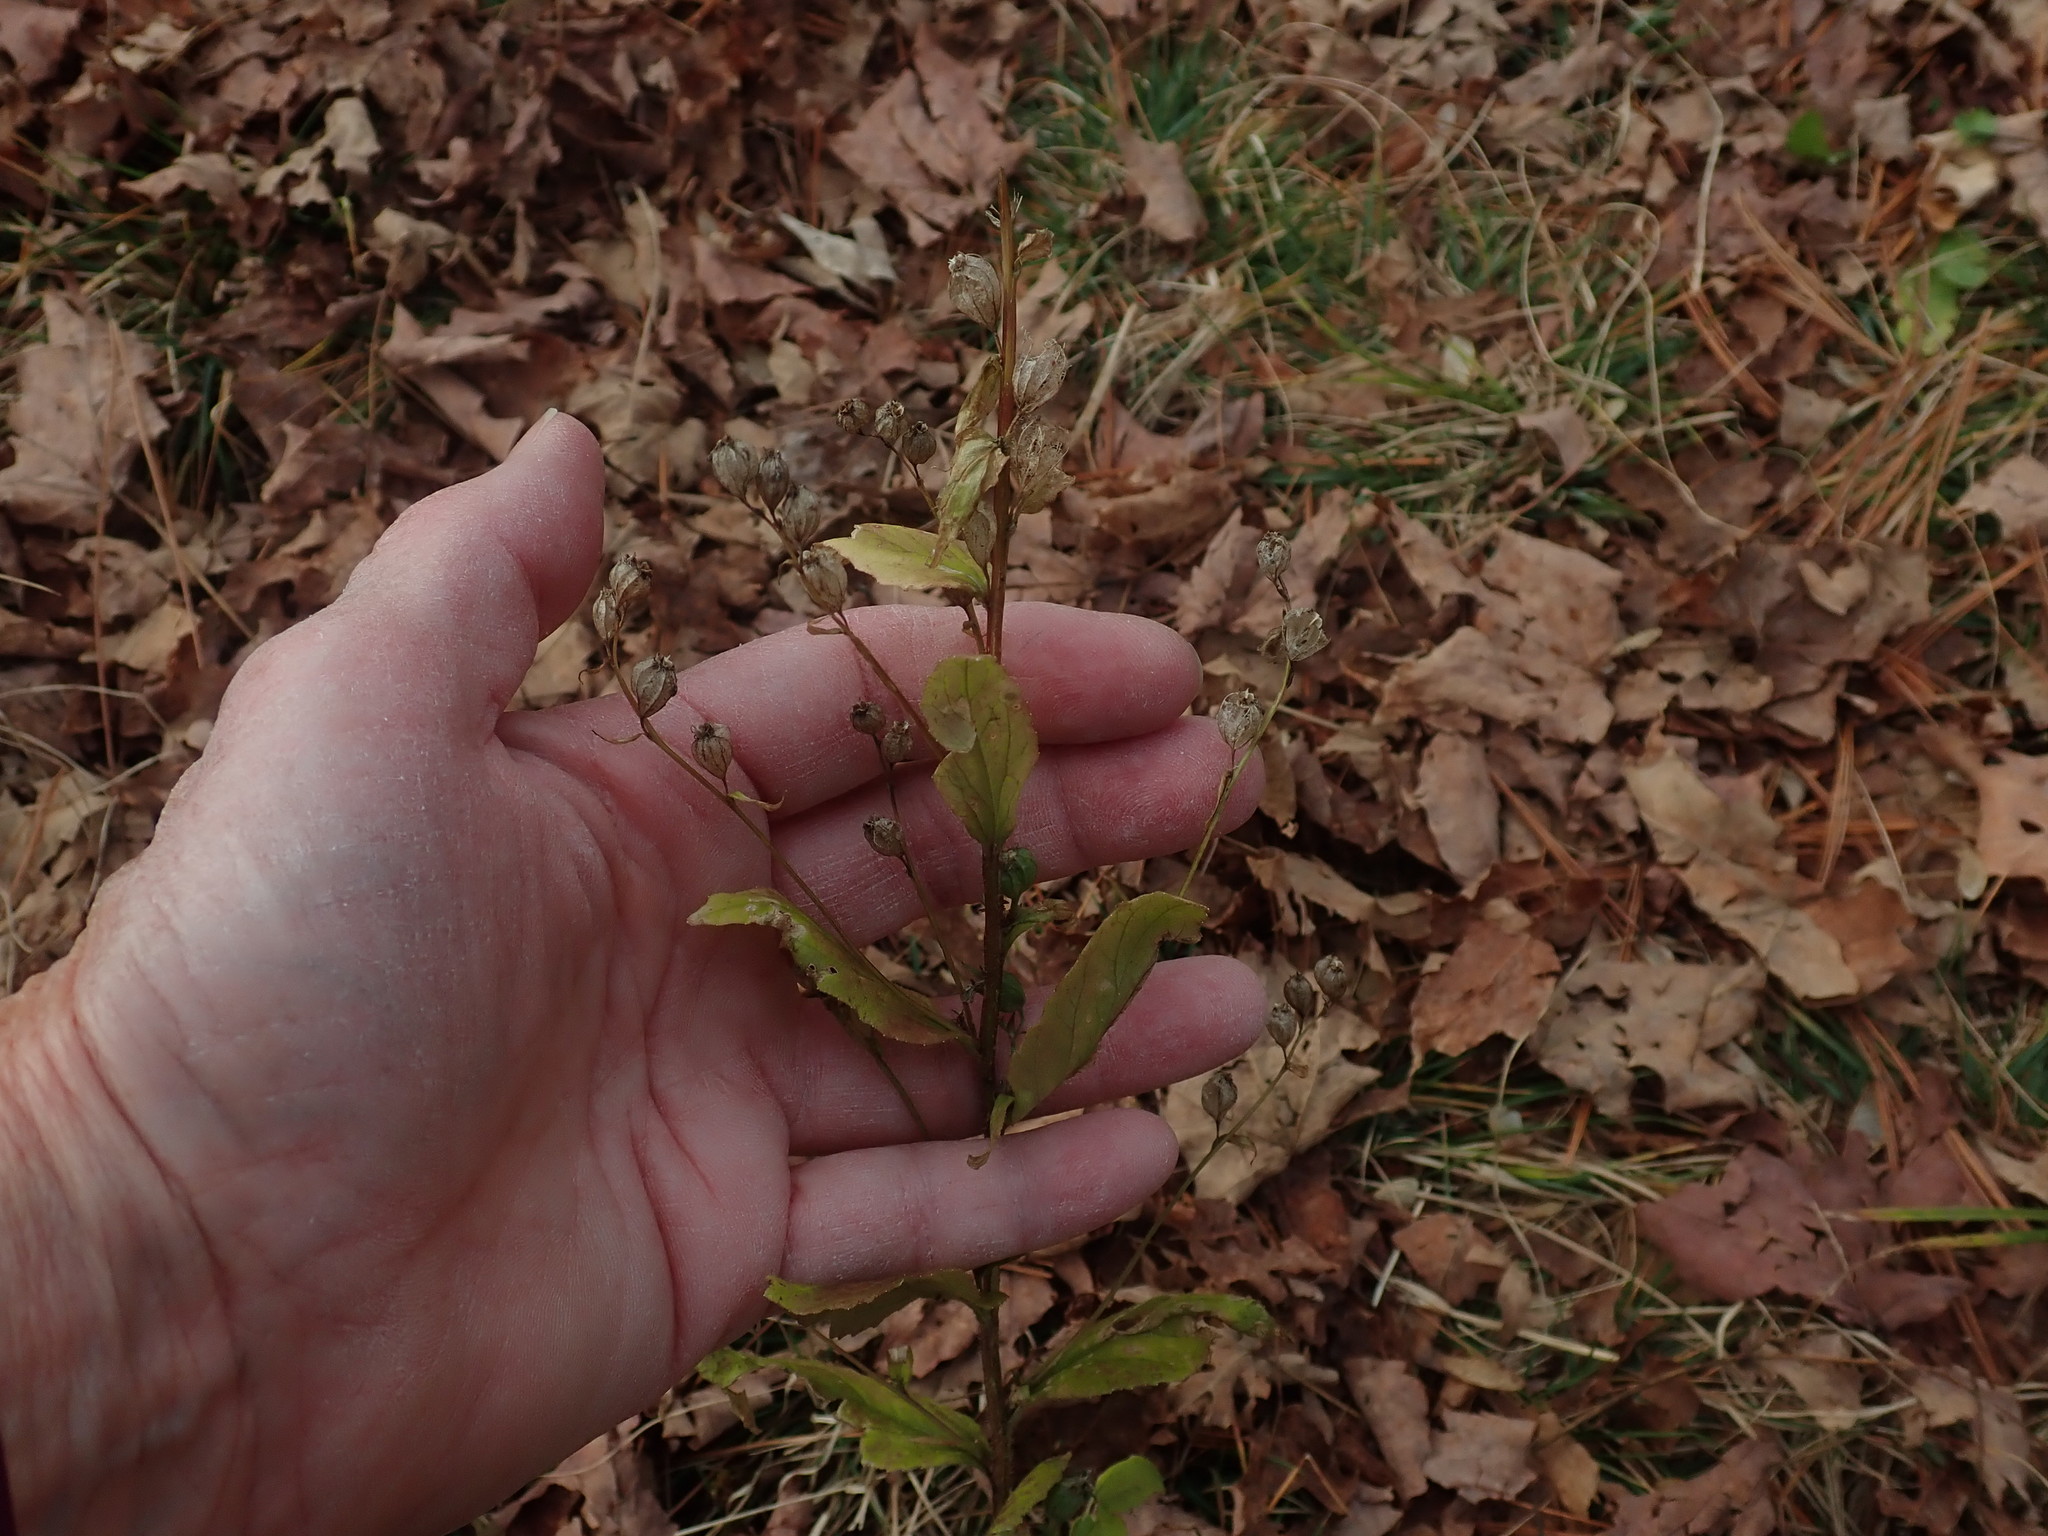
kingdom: Plantae
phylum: Tracheophyta
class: Magnoliopsida
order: Asterales
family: Campanulaceae
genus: Lobelia
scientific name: Lobelia inflata
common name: Indian tobacco
